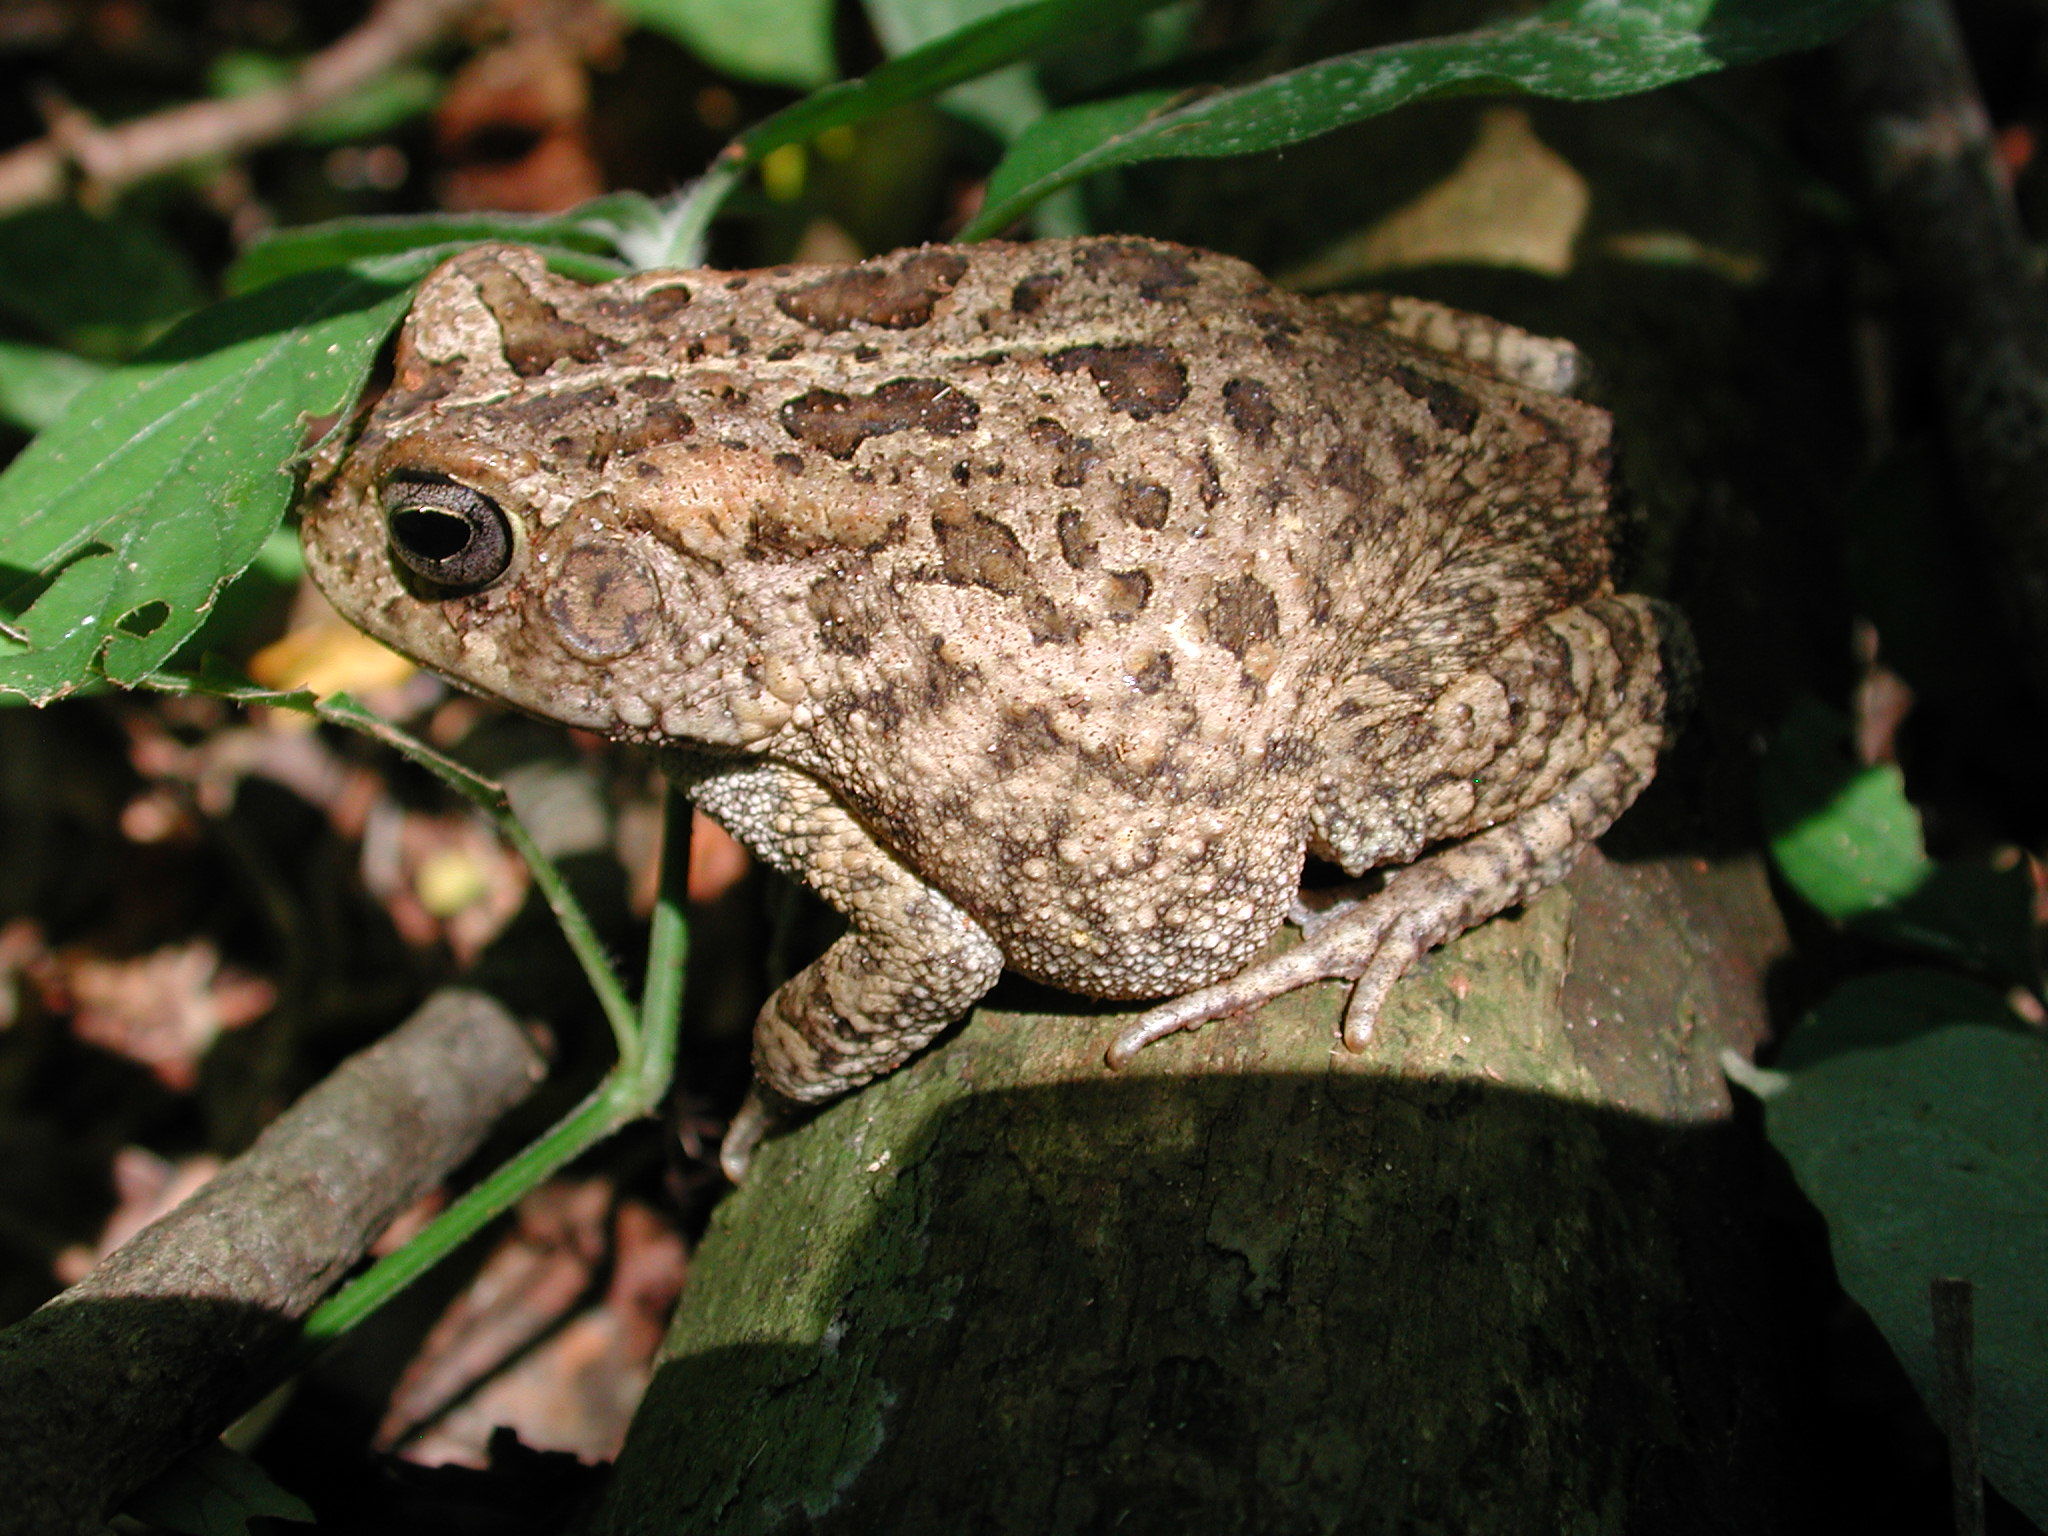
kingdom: Animalia
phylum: Chordata
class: Amphibia
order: Anura
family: Bufonidae
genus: Sclerophrys
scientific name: Sclerophrys gutturalis
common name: African common toad
